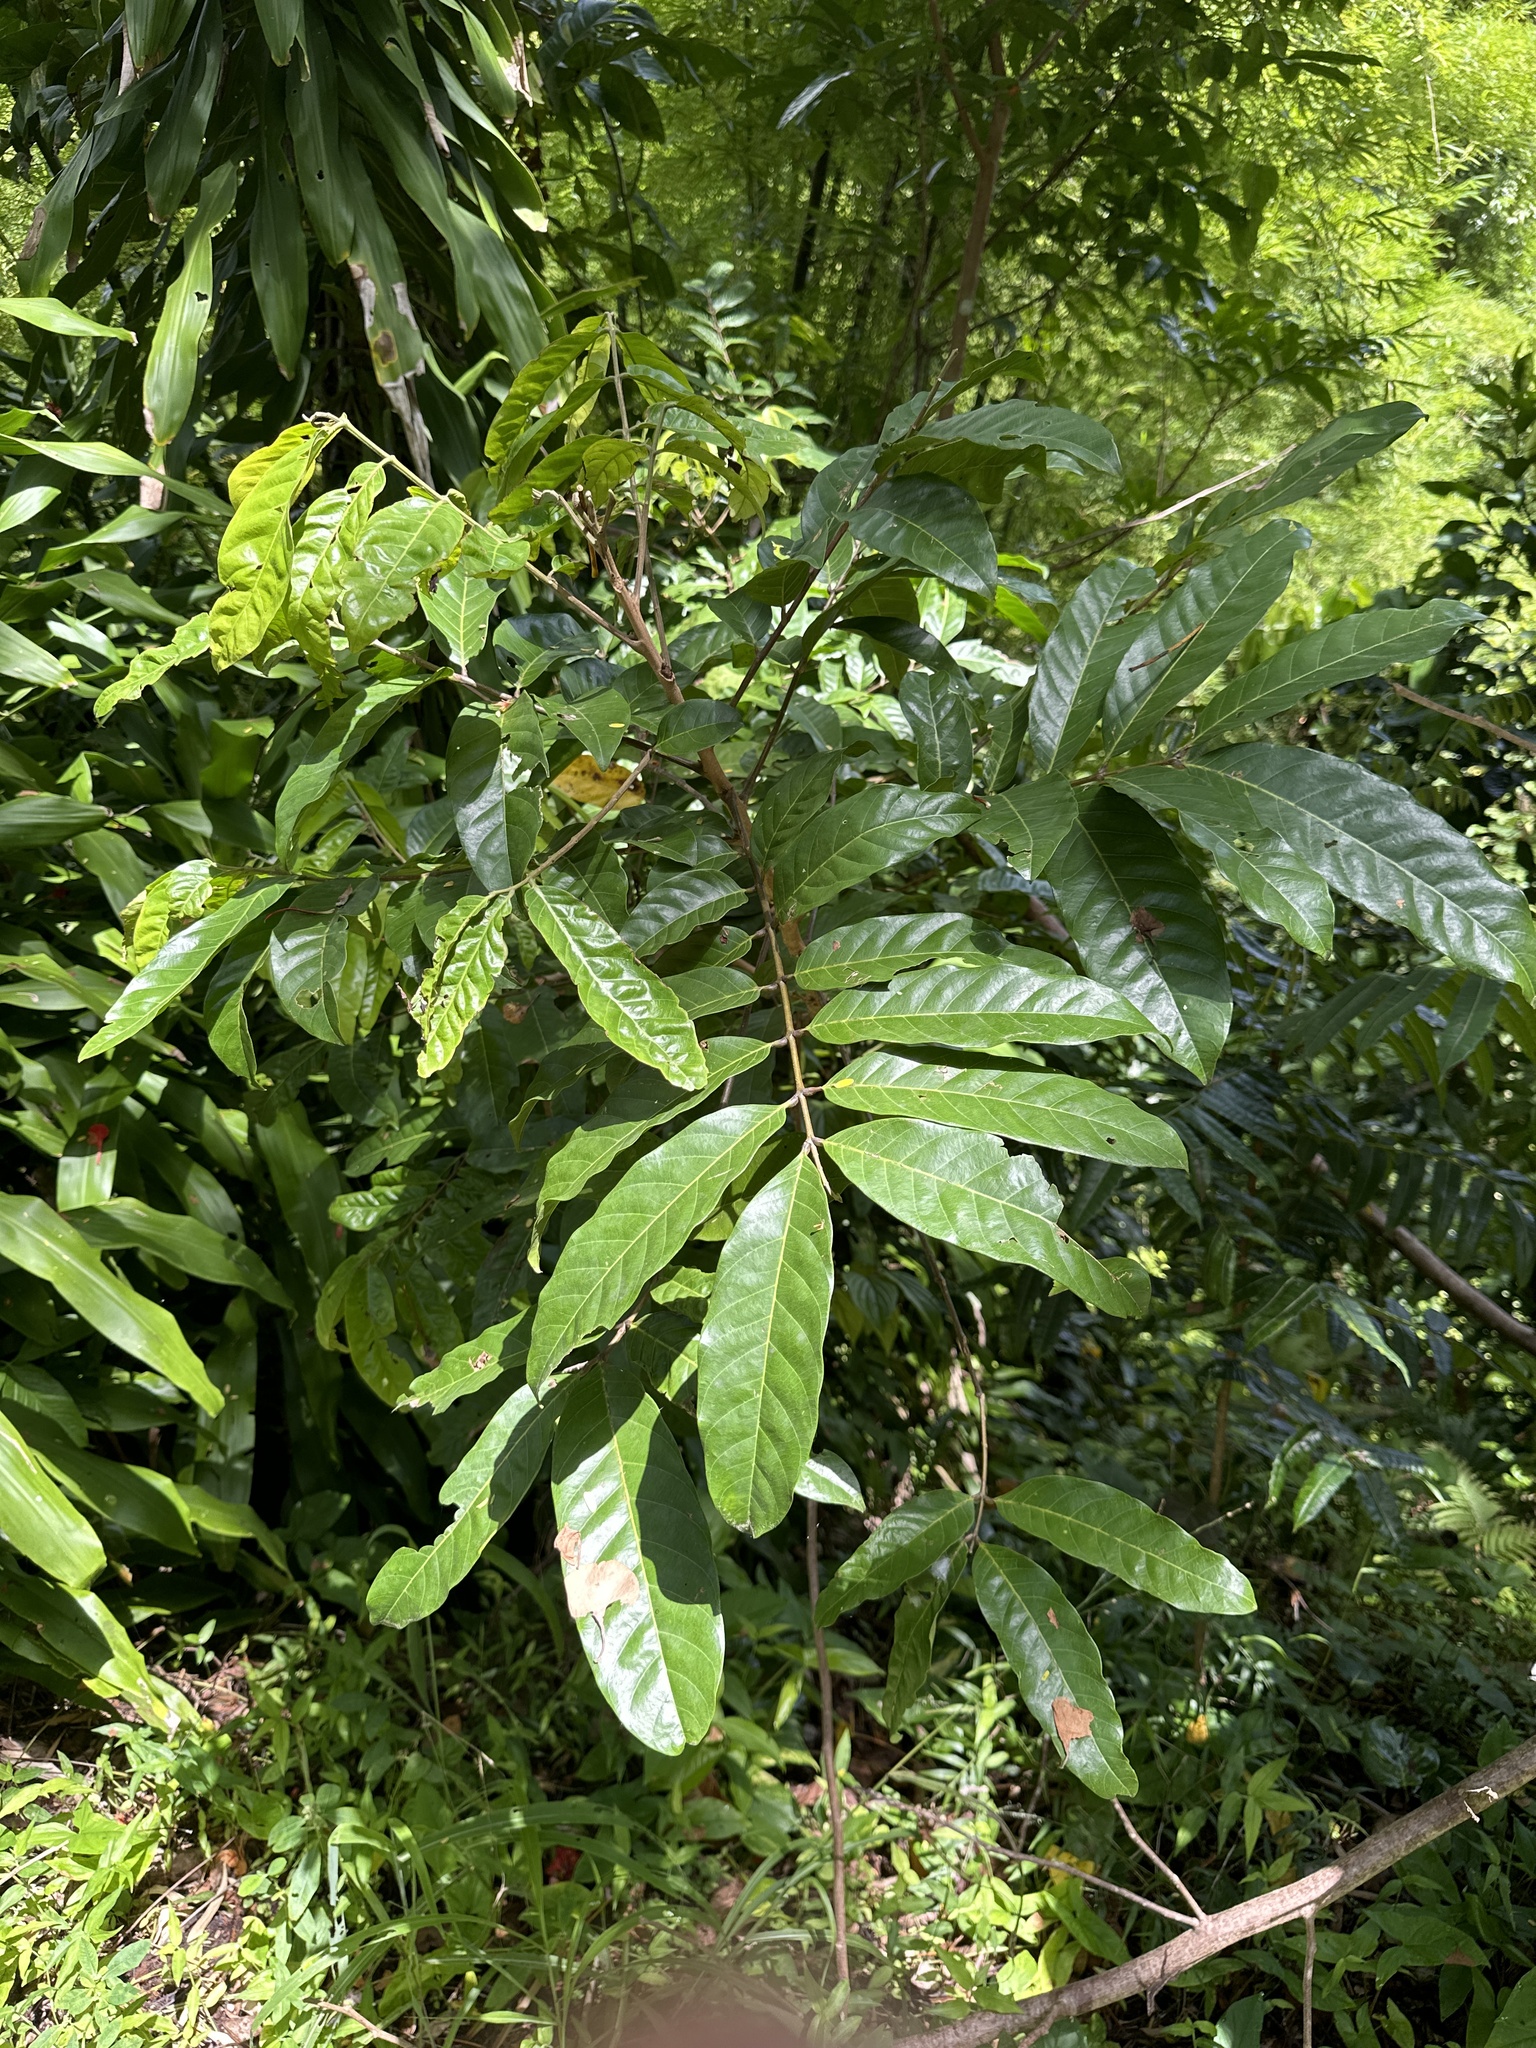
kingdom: Plantae
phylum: Tracheophyta
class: Magnoliopsida
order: Sapindales
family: Meliaceae
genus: Guarea
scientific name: Guarea guidonia
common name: American muskwood
